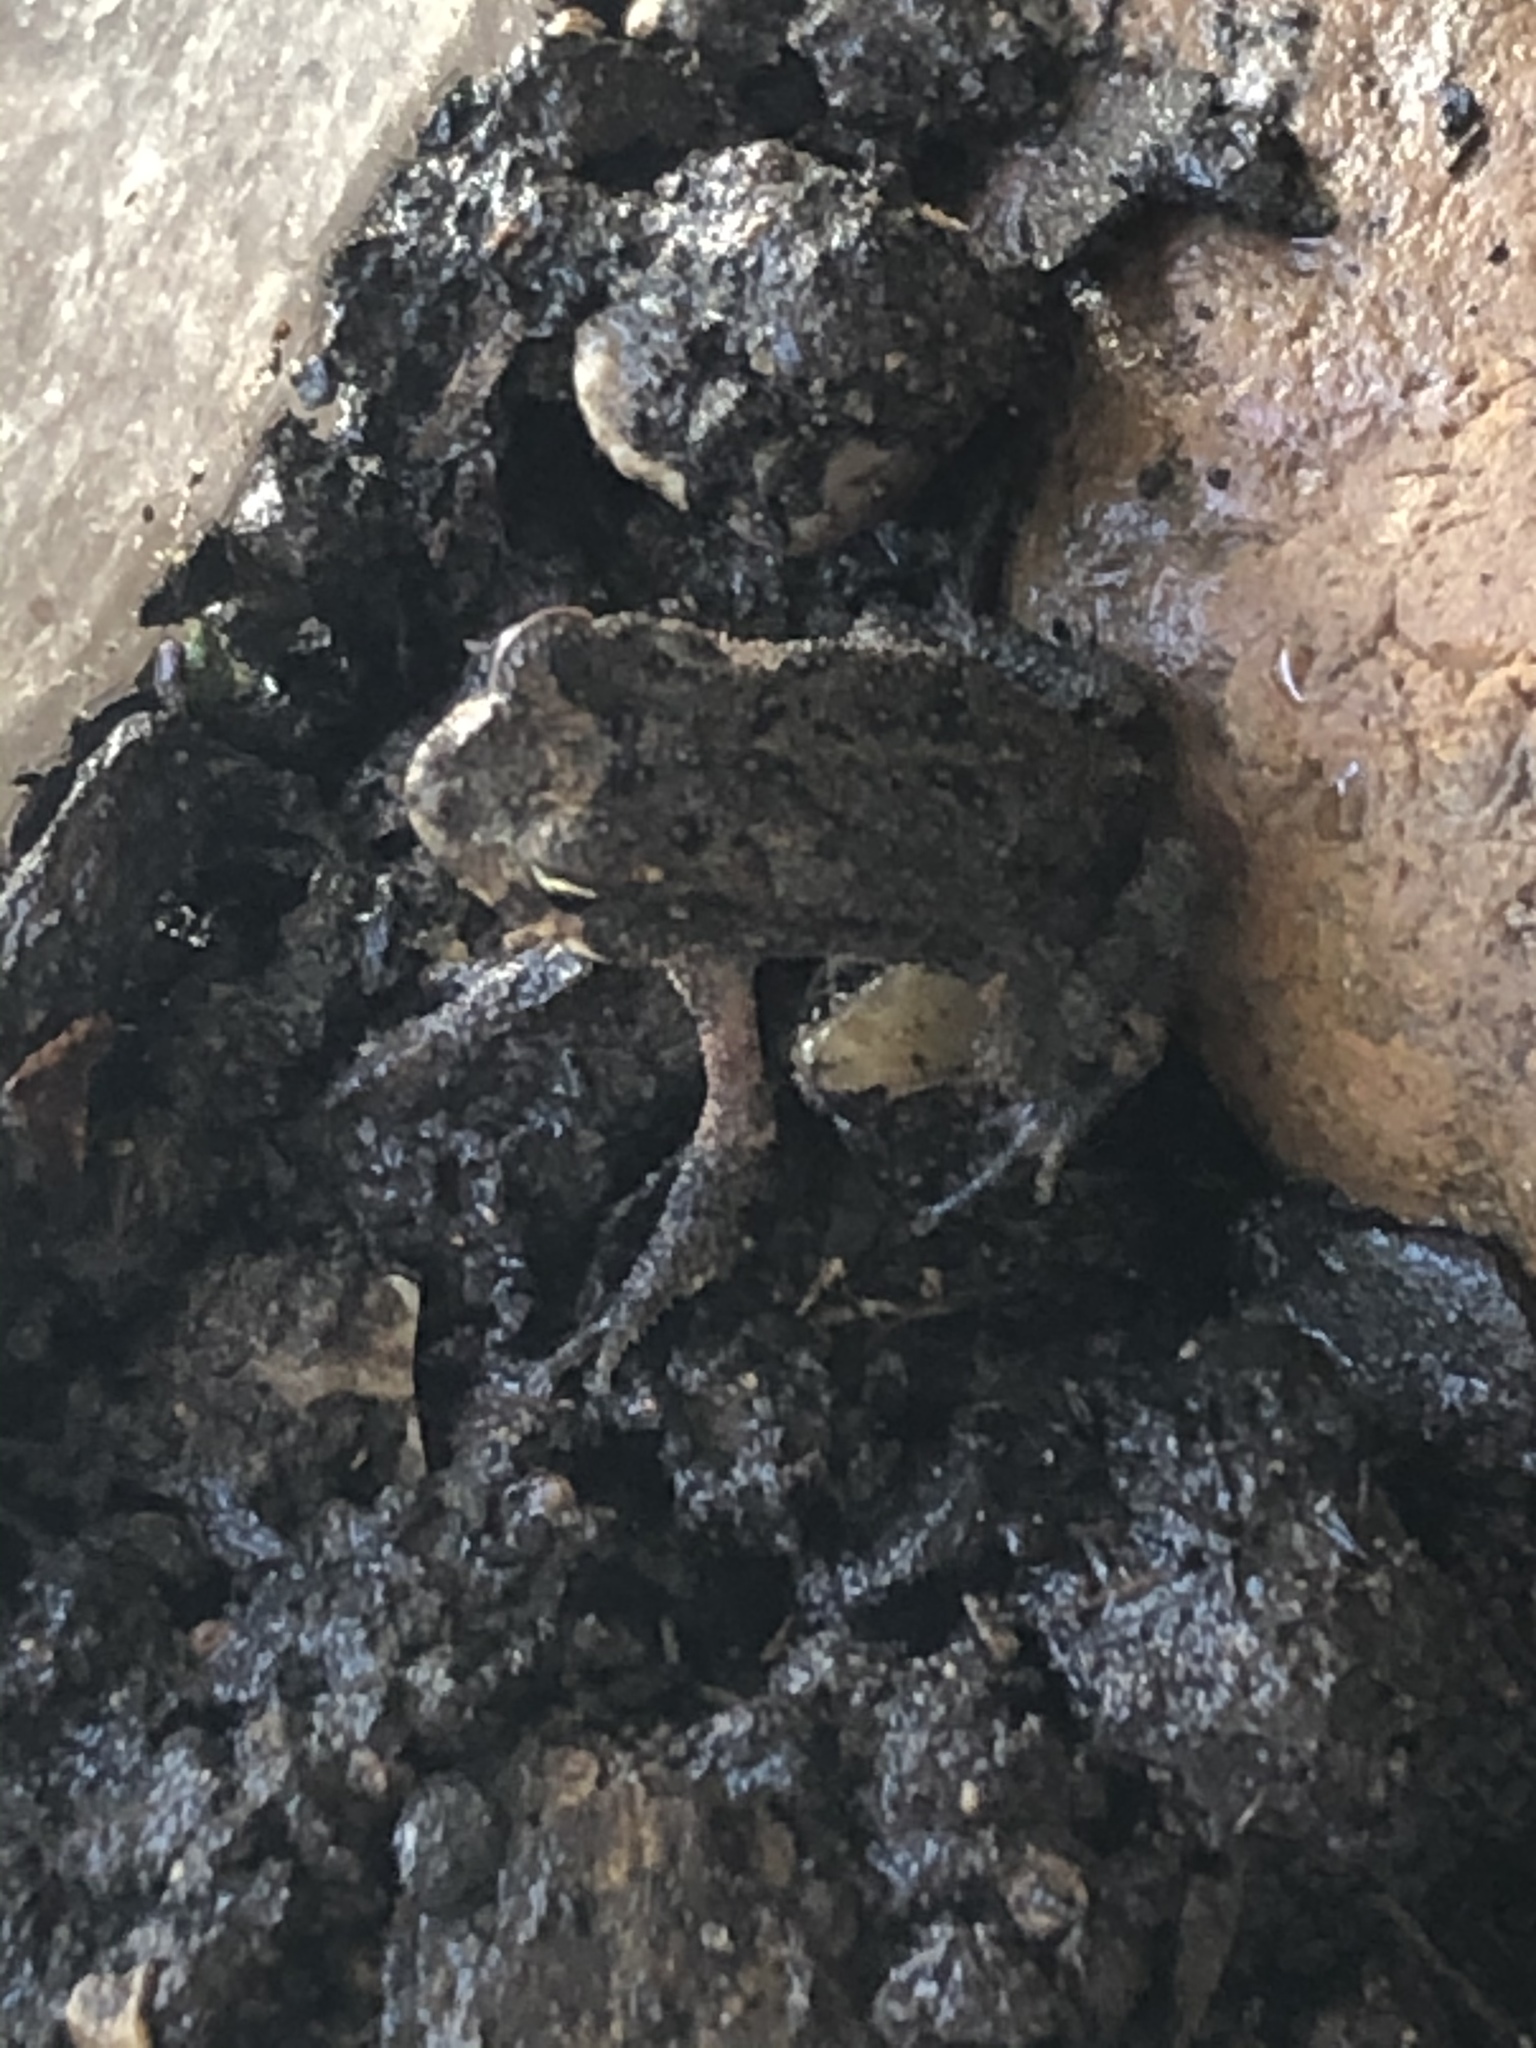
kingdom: Animalia
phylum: Chordata
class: Amphibia
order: Anura
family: Bufonidae
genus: Incilius
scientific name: Incilius nebulifer
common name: Gulf coast toad
